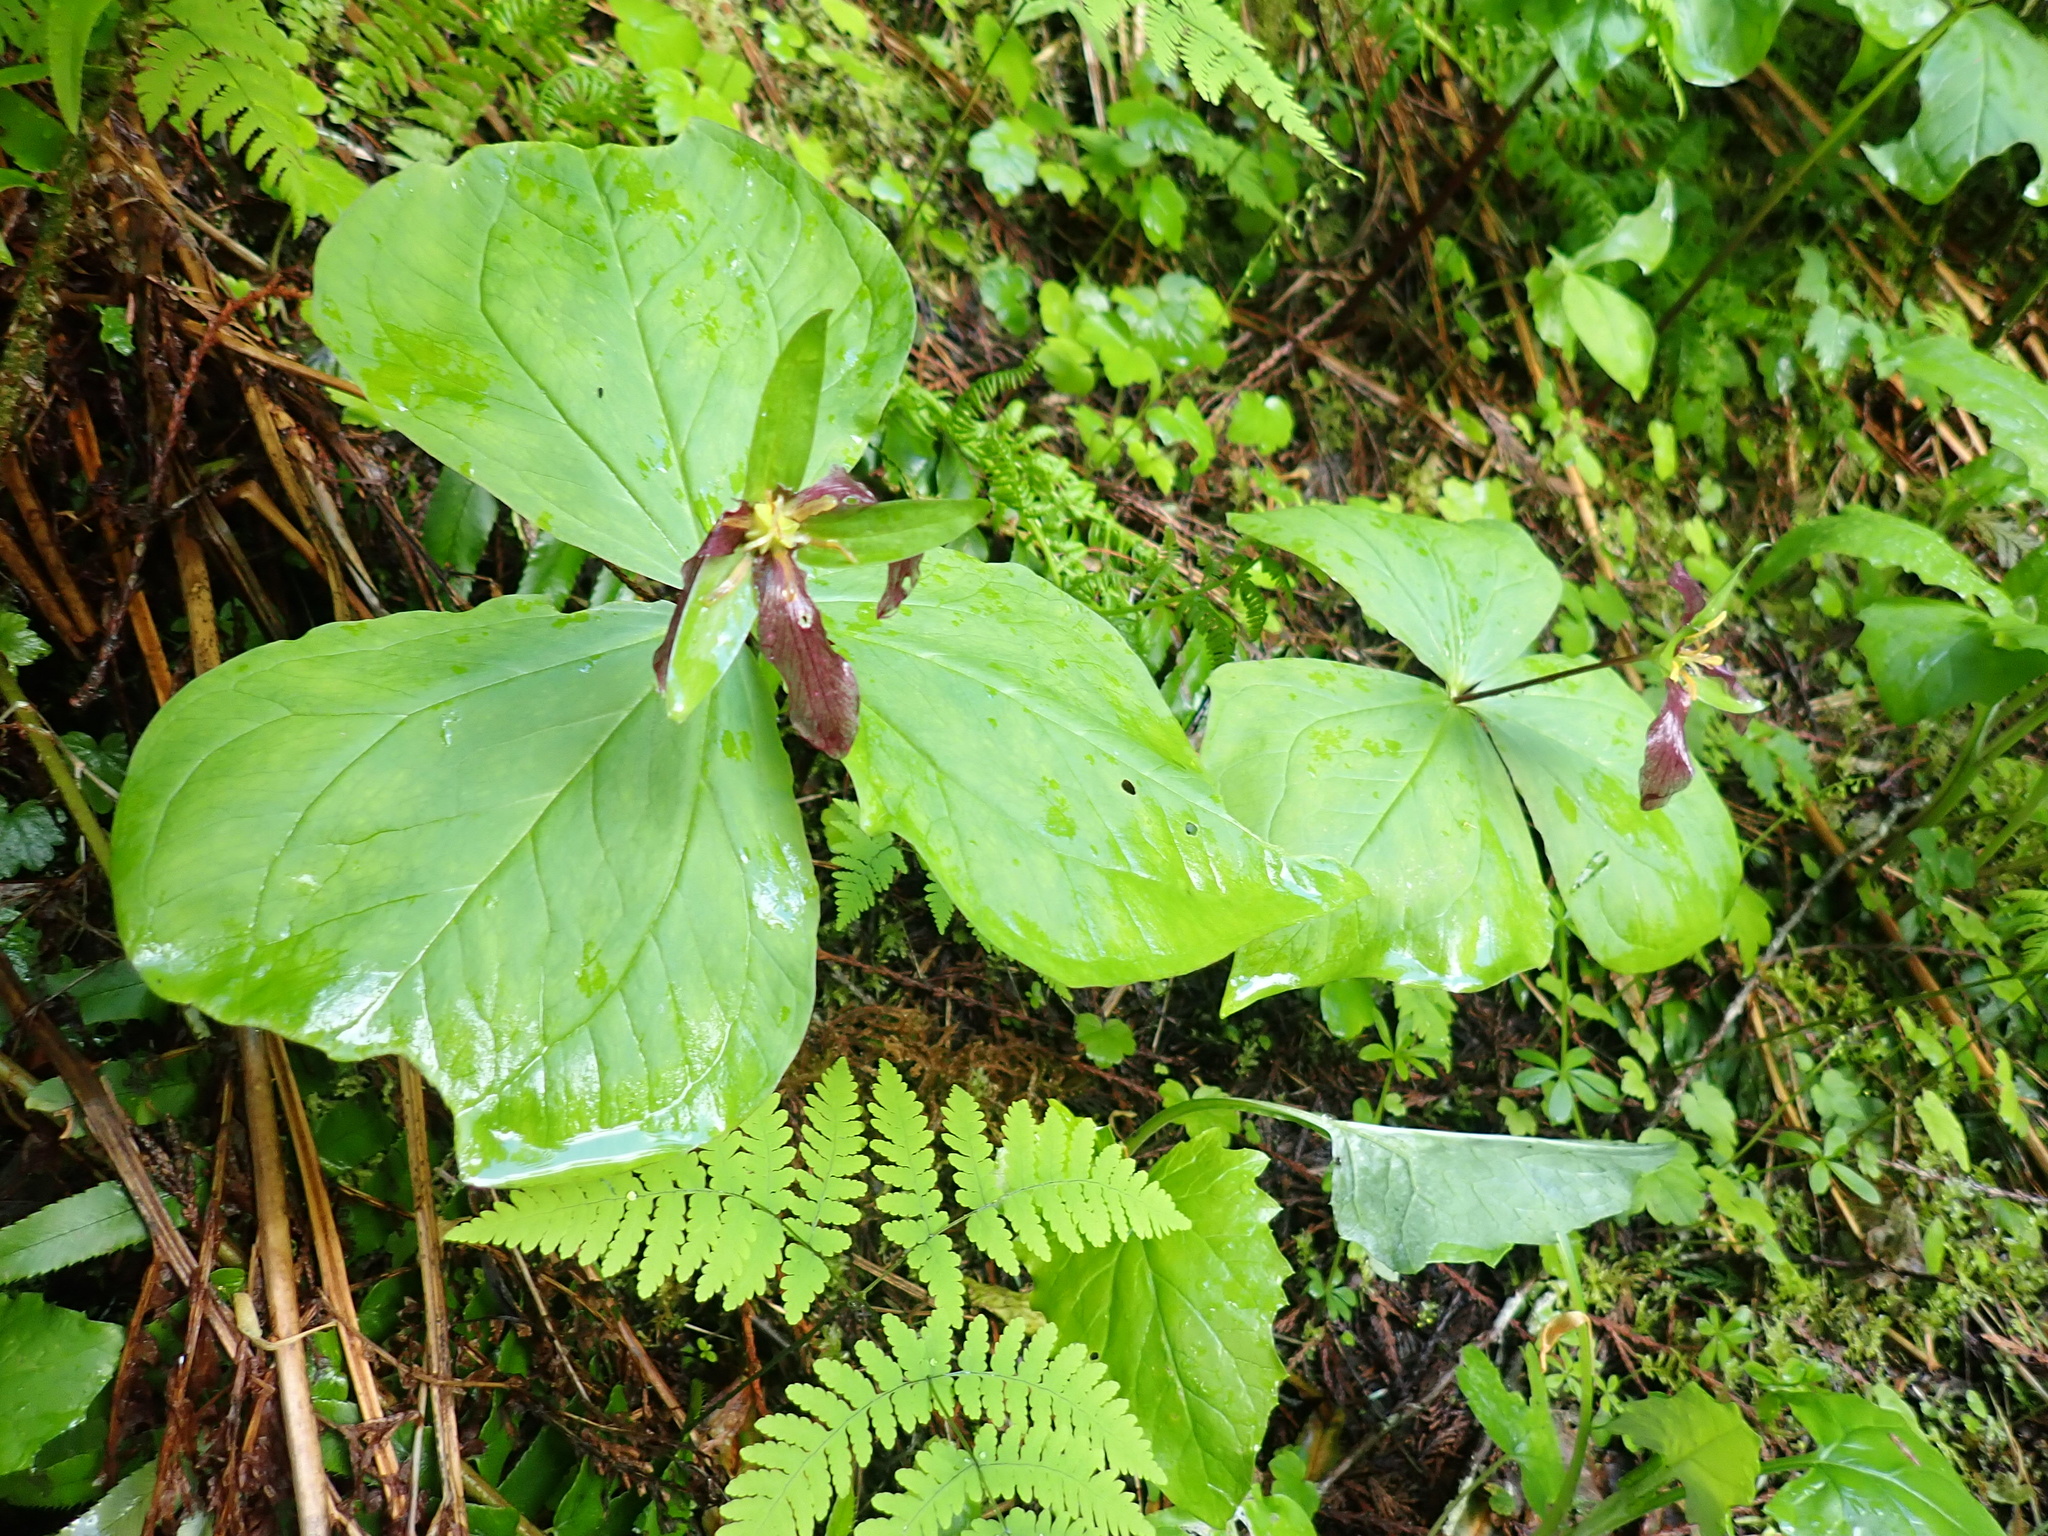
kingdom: Plantae
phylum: Tracheophyta
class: Liliopsida
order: Liliales
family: Melanthiaceae
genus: Trillium
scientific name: Trillium ovatum
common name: Pacific trillium
